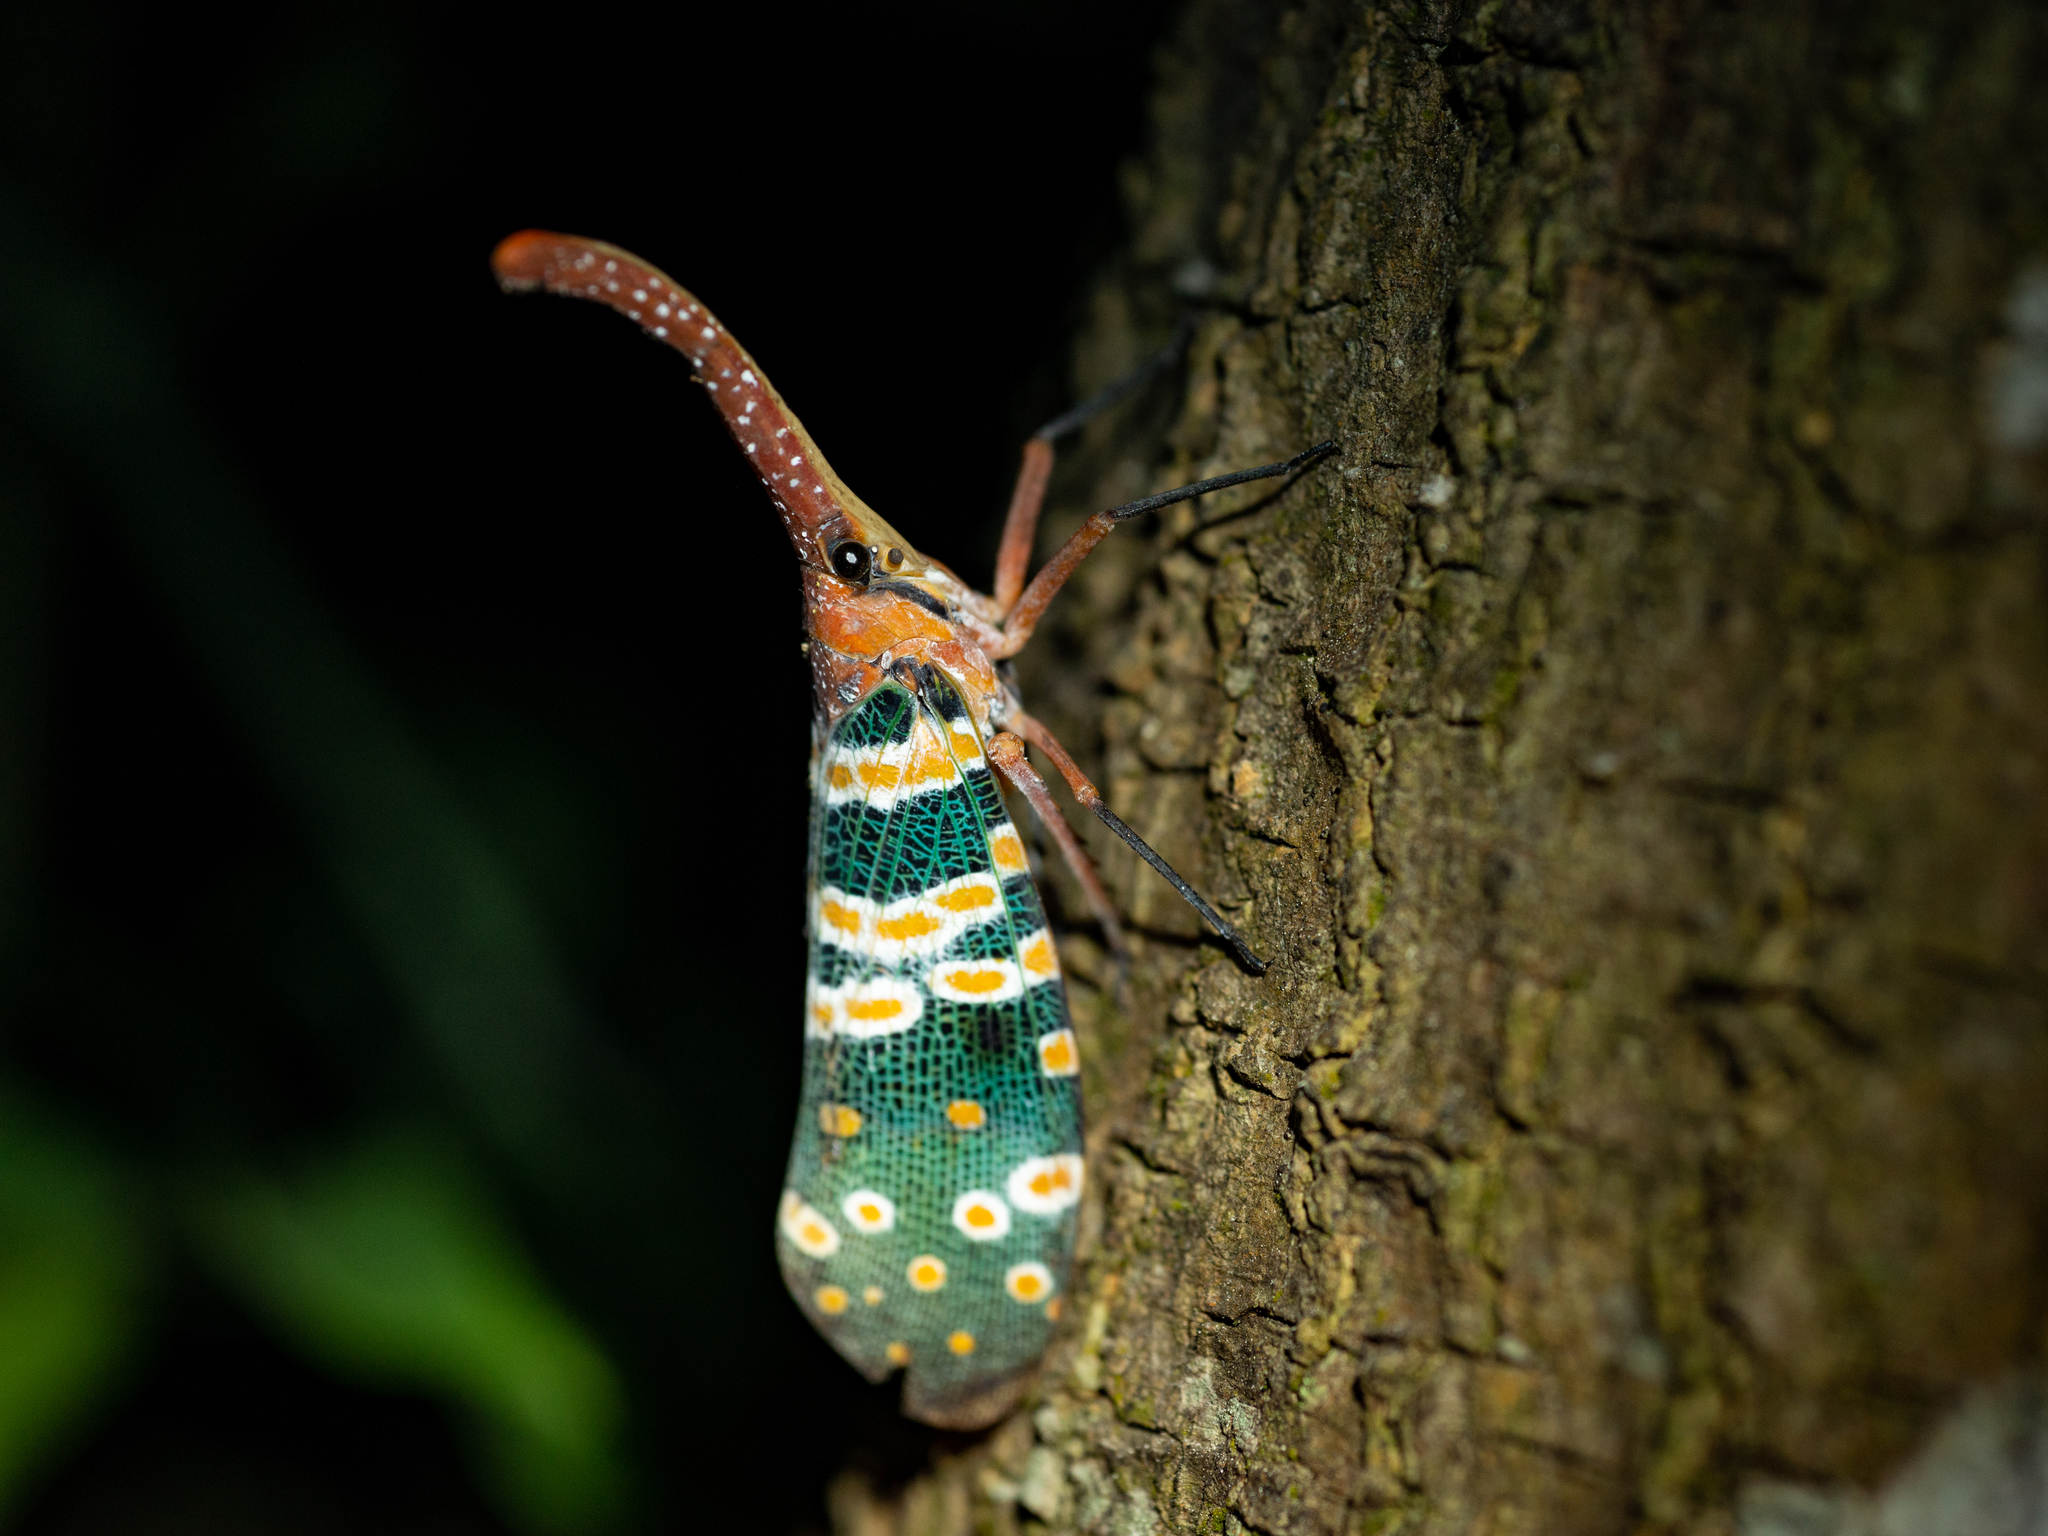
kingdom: Animalia
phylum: Arthropoda
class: Insecta
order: Hemiptera
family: Fulgoridae
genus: Pyrops
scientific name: Pyrops candelaria
